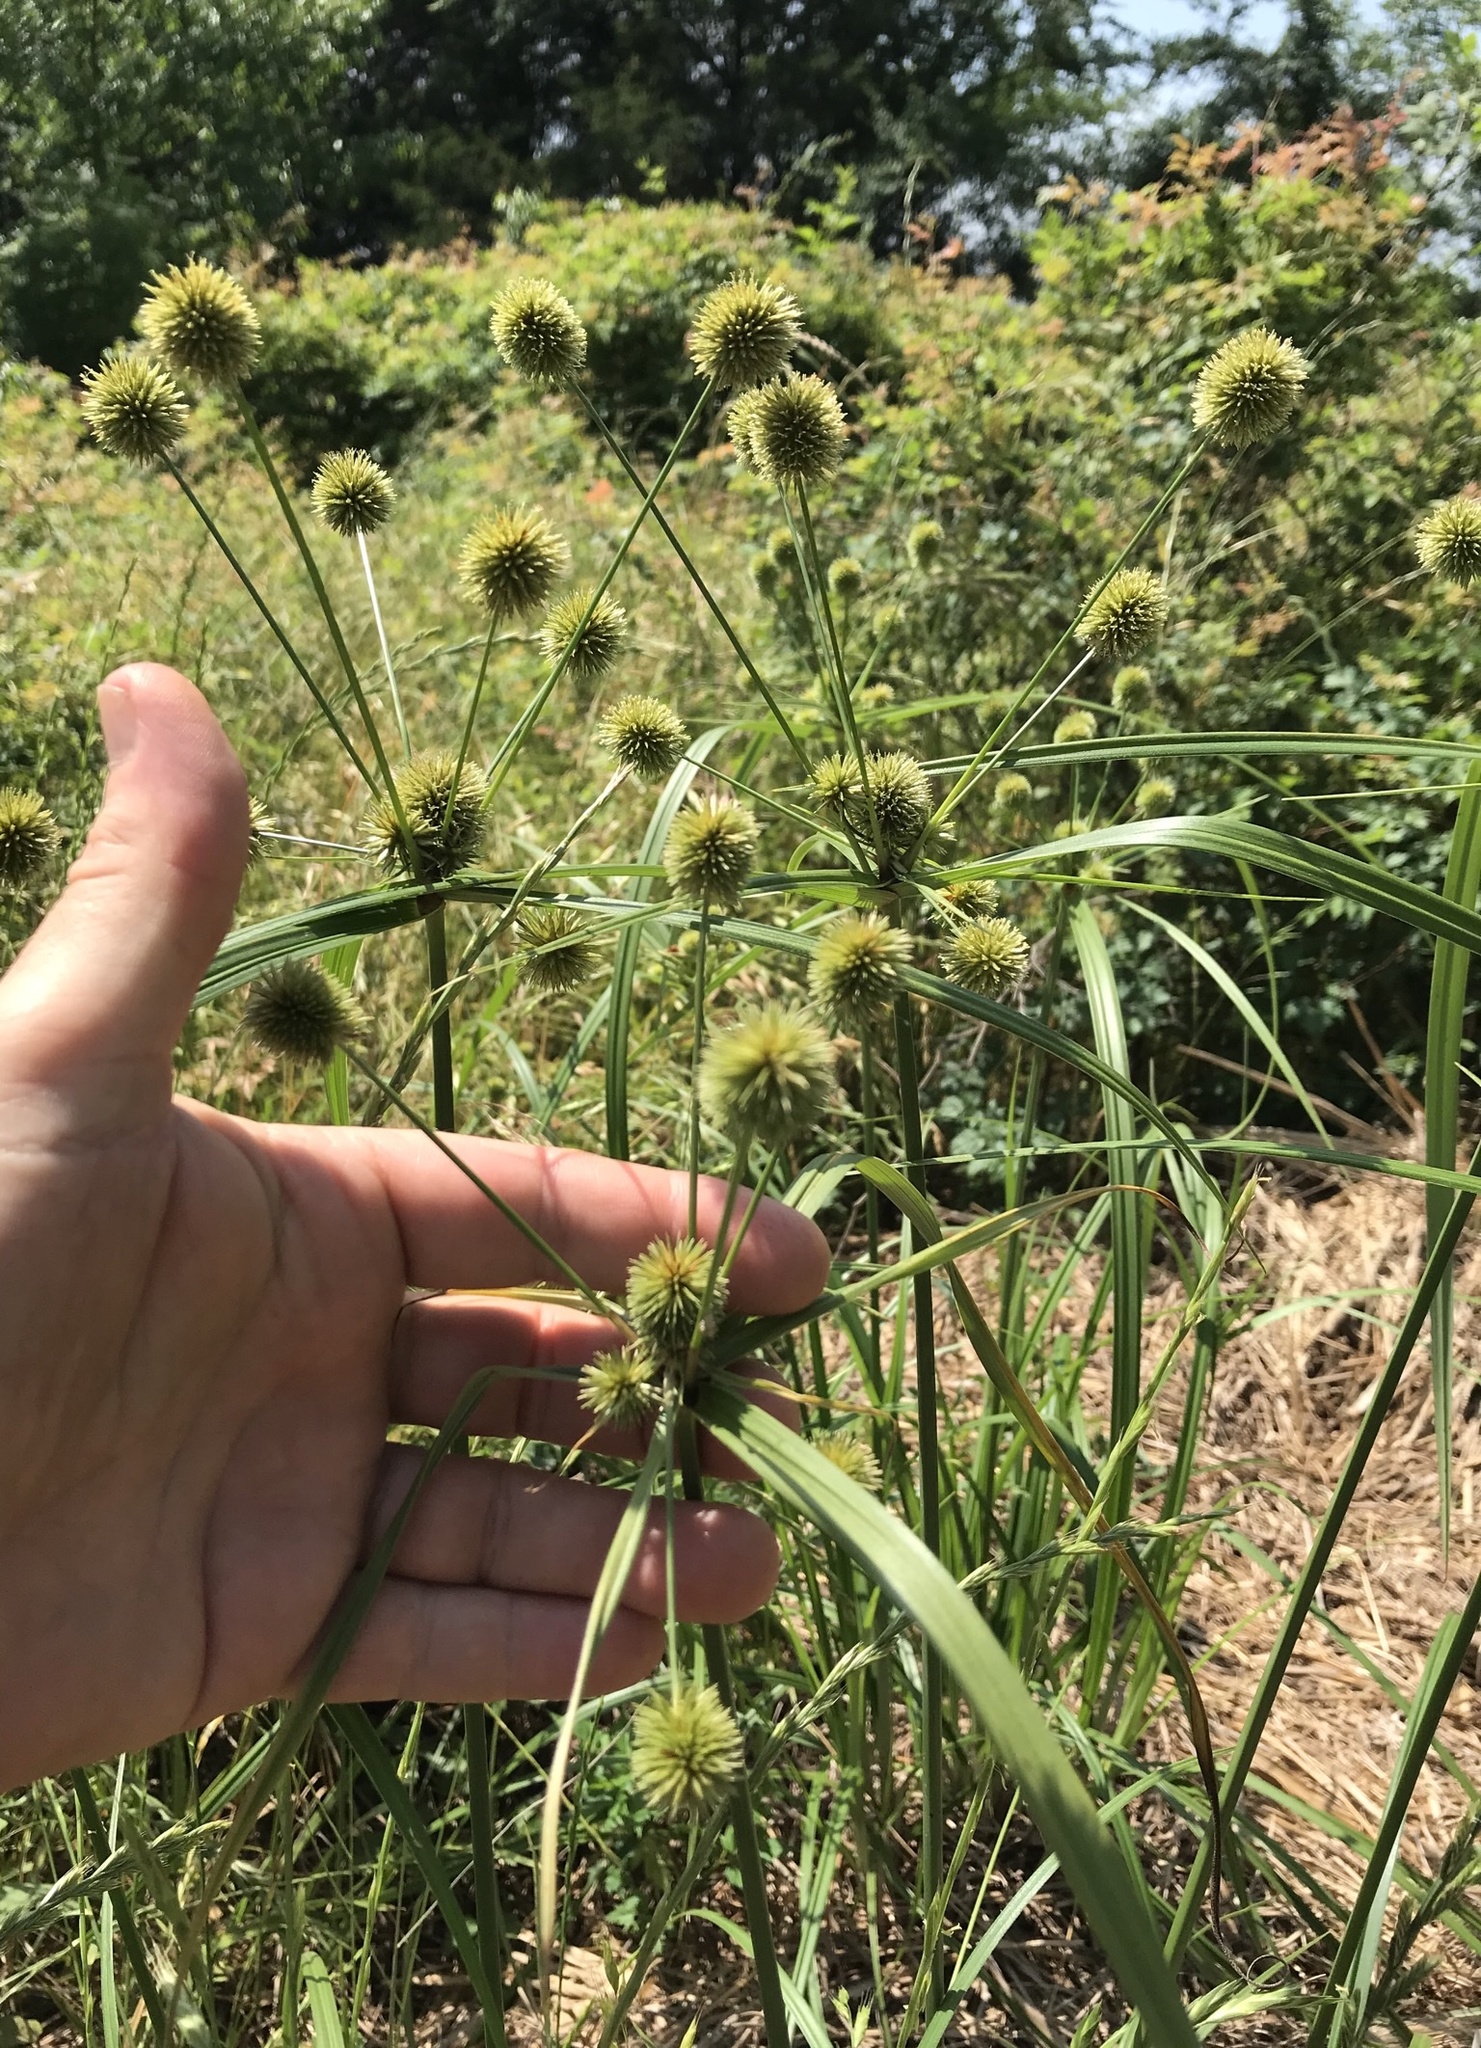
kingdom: Plantae
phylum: Tracheophyta
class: Liliopsida
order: Poales
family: Cyperaceae
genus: Cyperus
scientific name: Cyperus echinatus
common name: Teasel sedge
